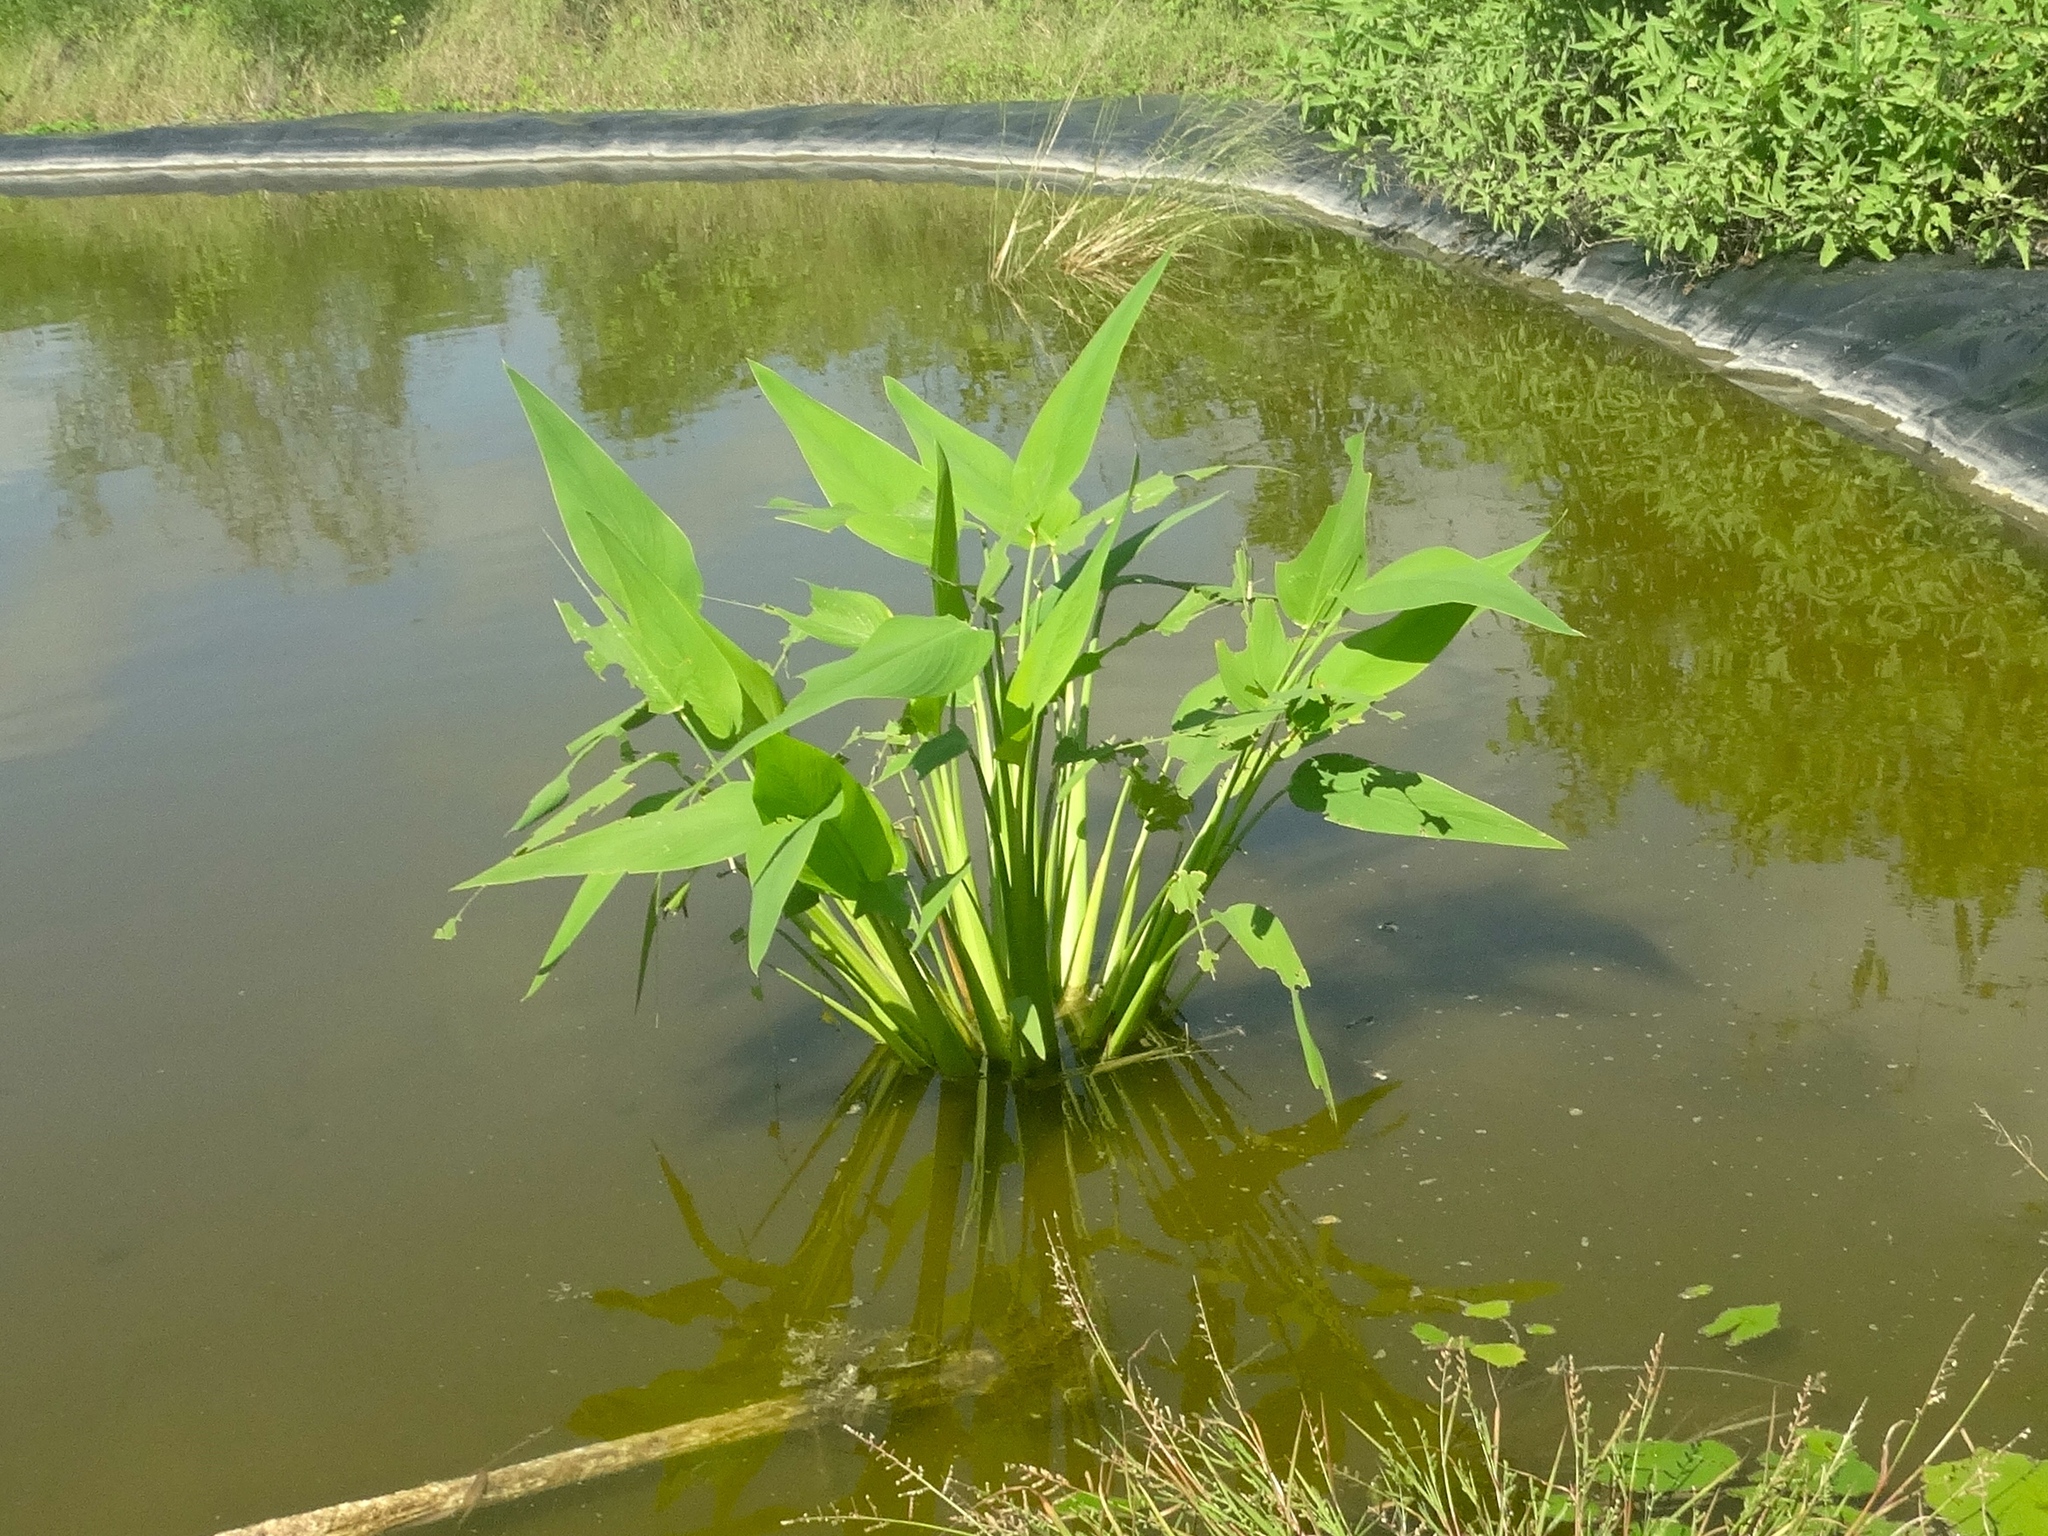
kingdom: Plantae
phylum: Tracheophyta
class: Liliopsida
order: Zingiberales
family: Marantaceae
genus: Thalia
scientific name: Thalia geniculata
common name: Arrowroot
